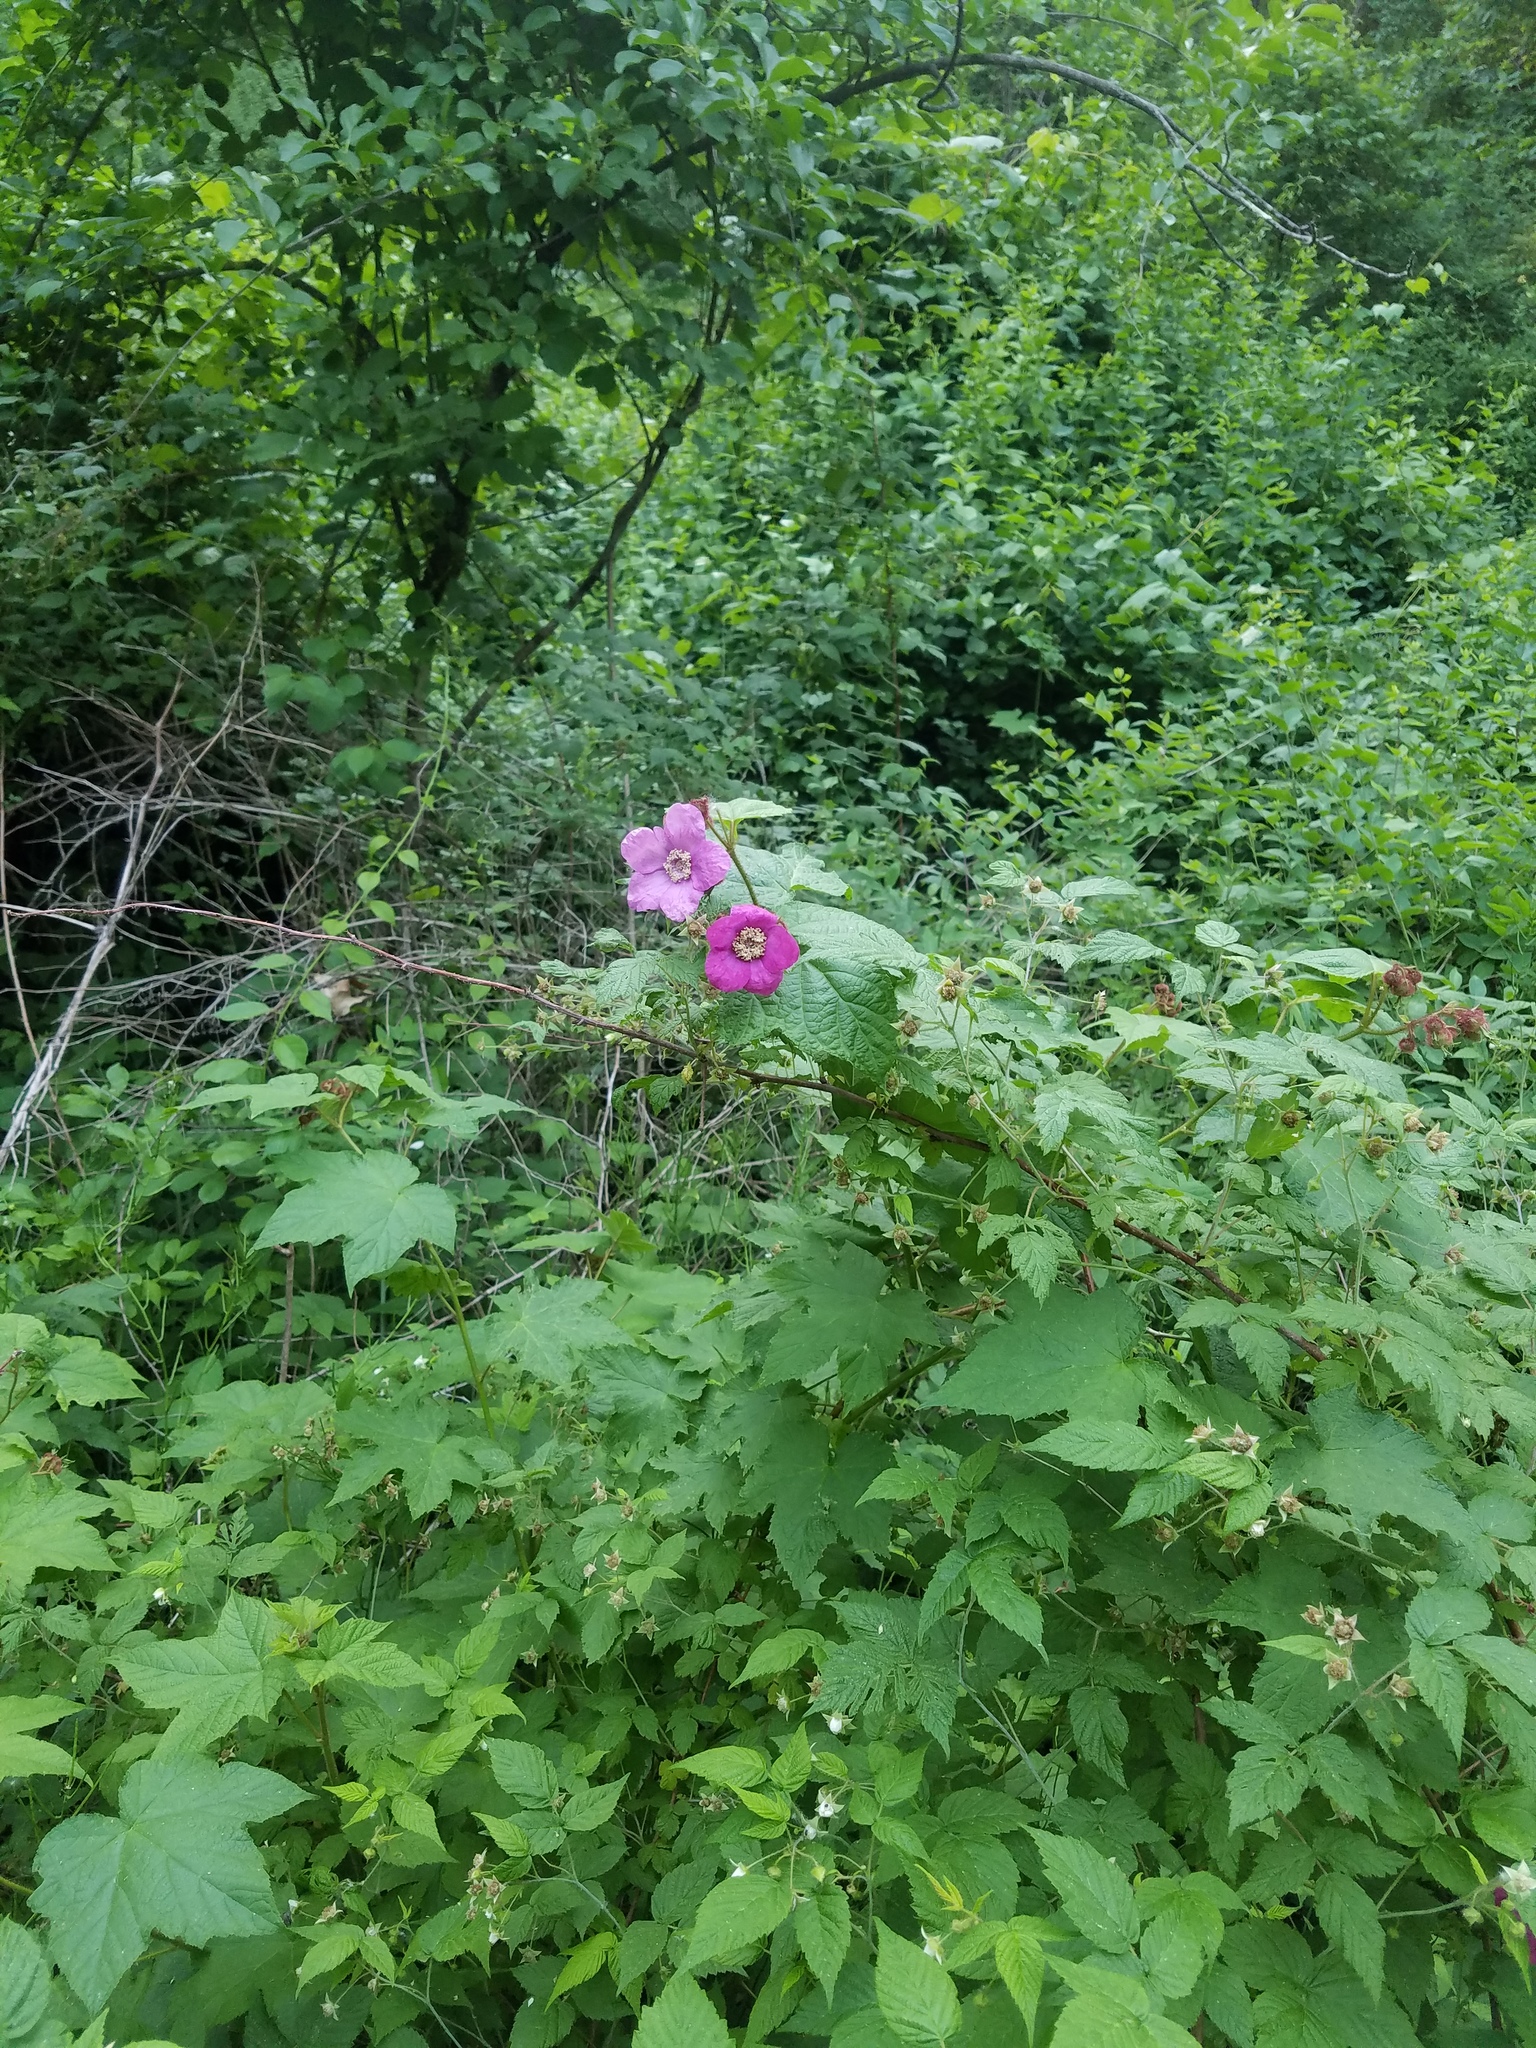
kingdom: Plantae
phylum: Tracheophyta
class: Magnoliopsida
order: Rosales
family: Rosaceae
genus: Rubus
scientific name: Rubus odoratus
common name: Purple-flowered raspberry
